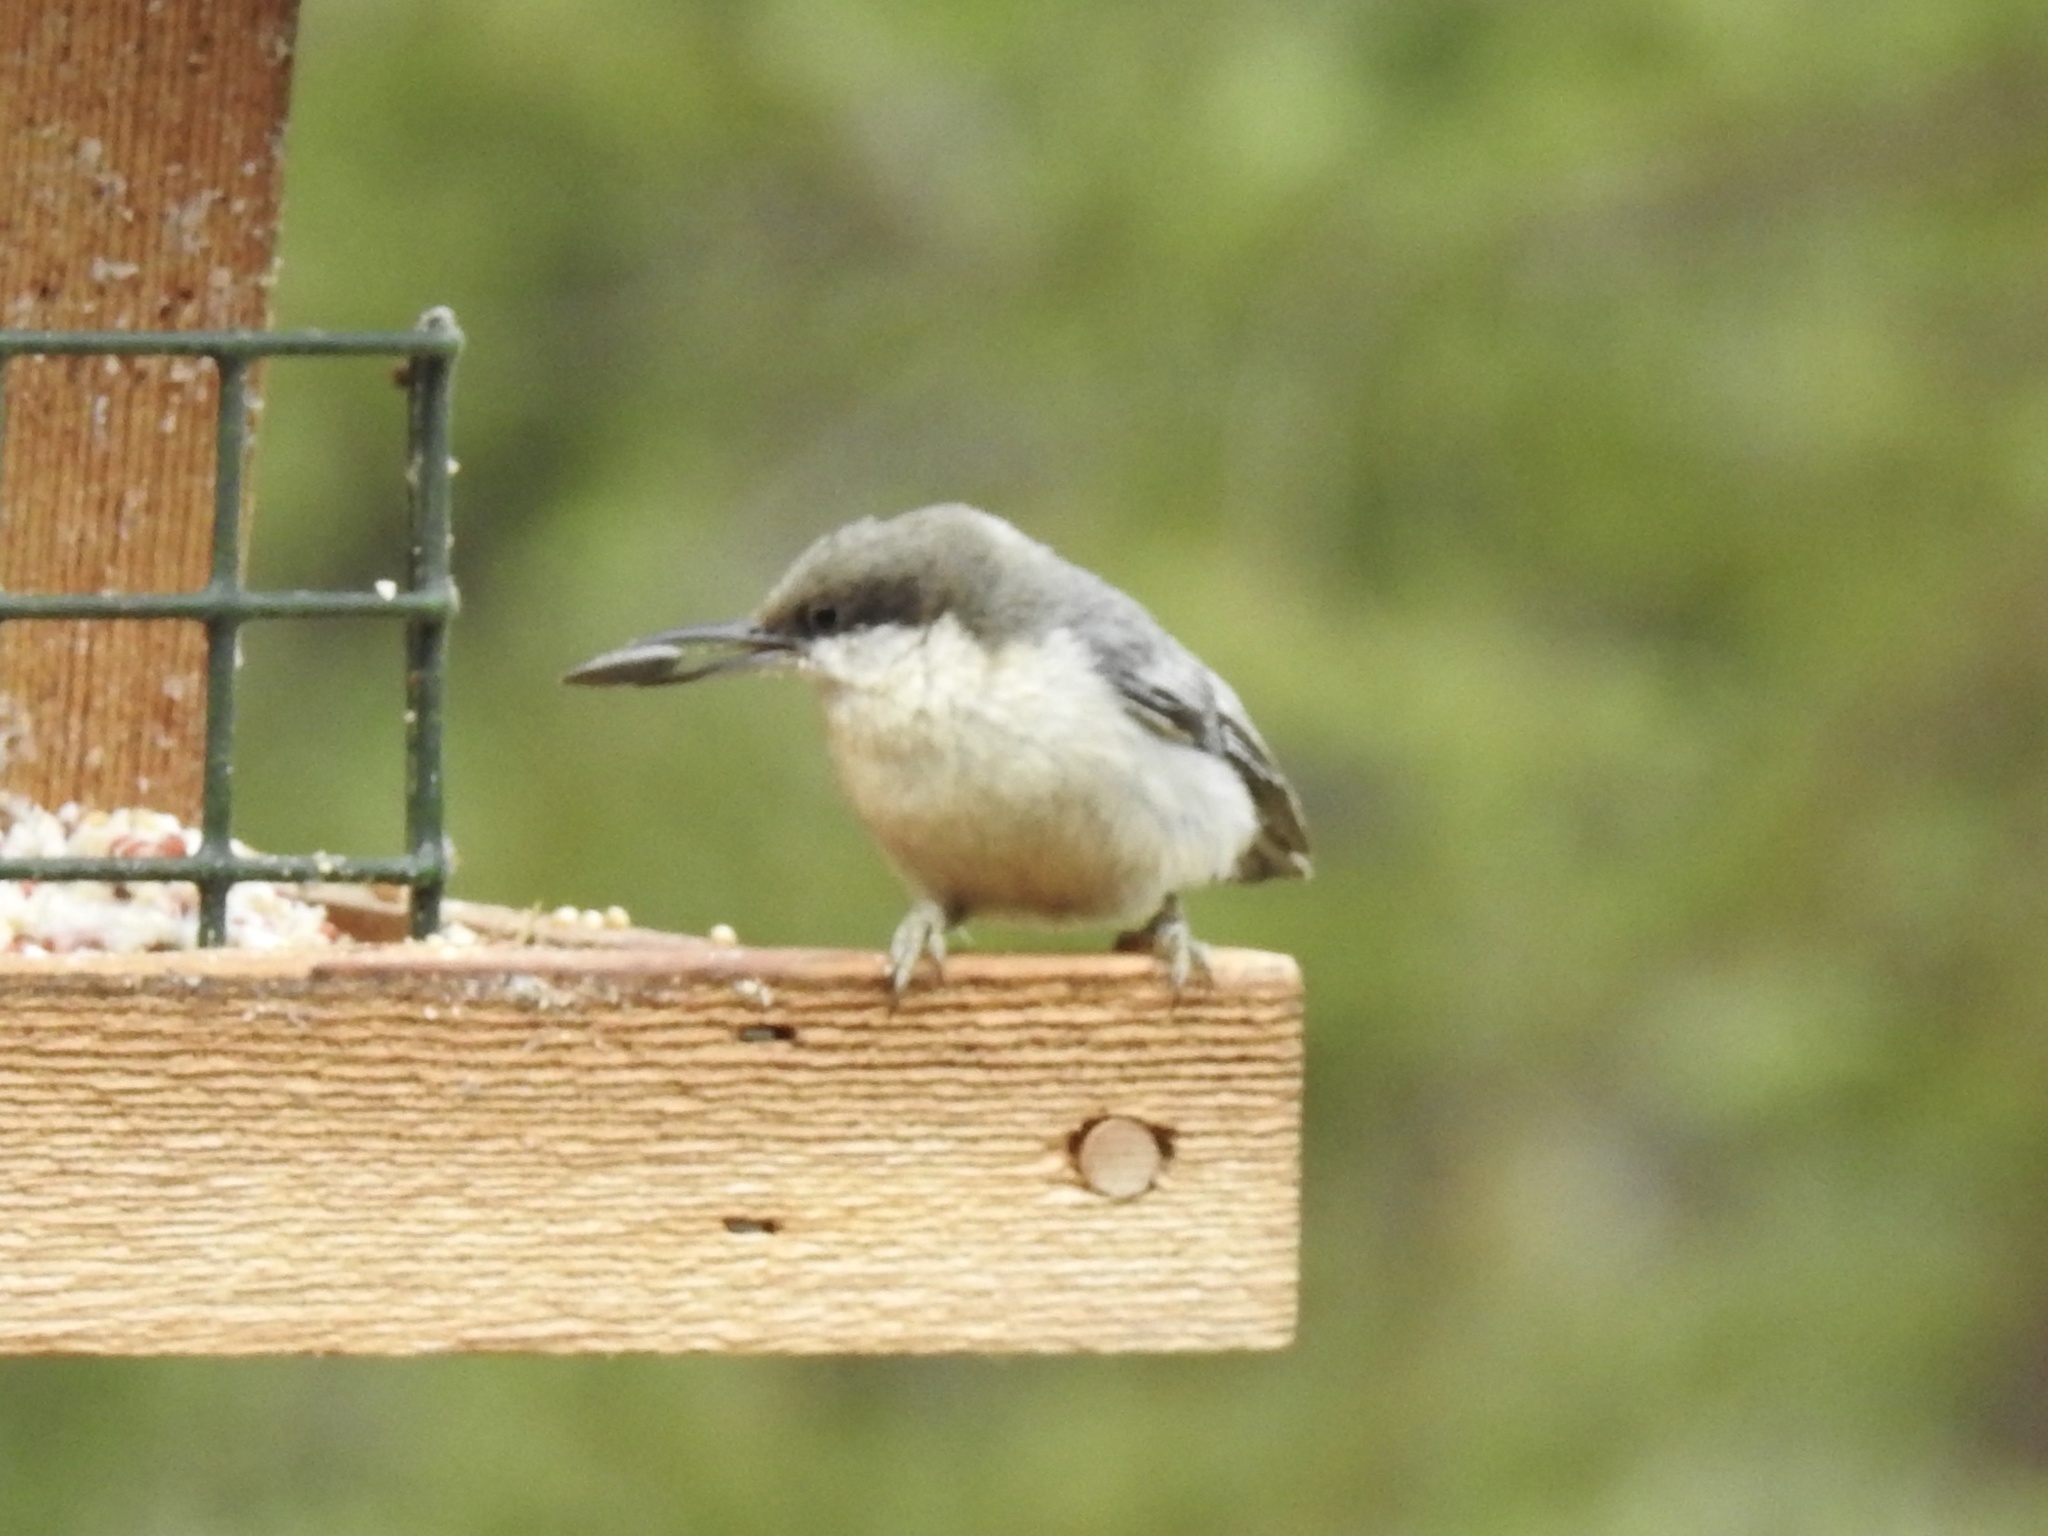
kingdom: Animalia
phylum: Chordata
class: Aves
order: Passeriformes
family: Sittidae
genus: Sitta
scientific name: Sitta pygmaea
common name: Pygmy nuthatch
